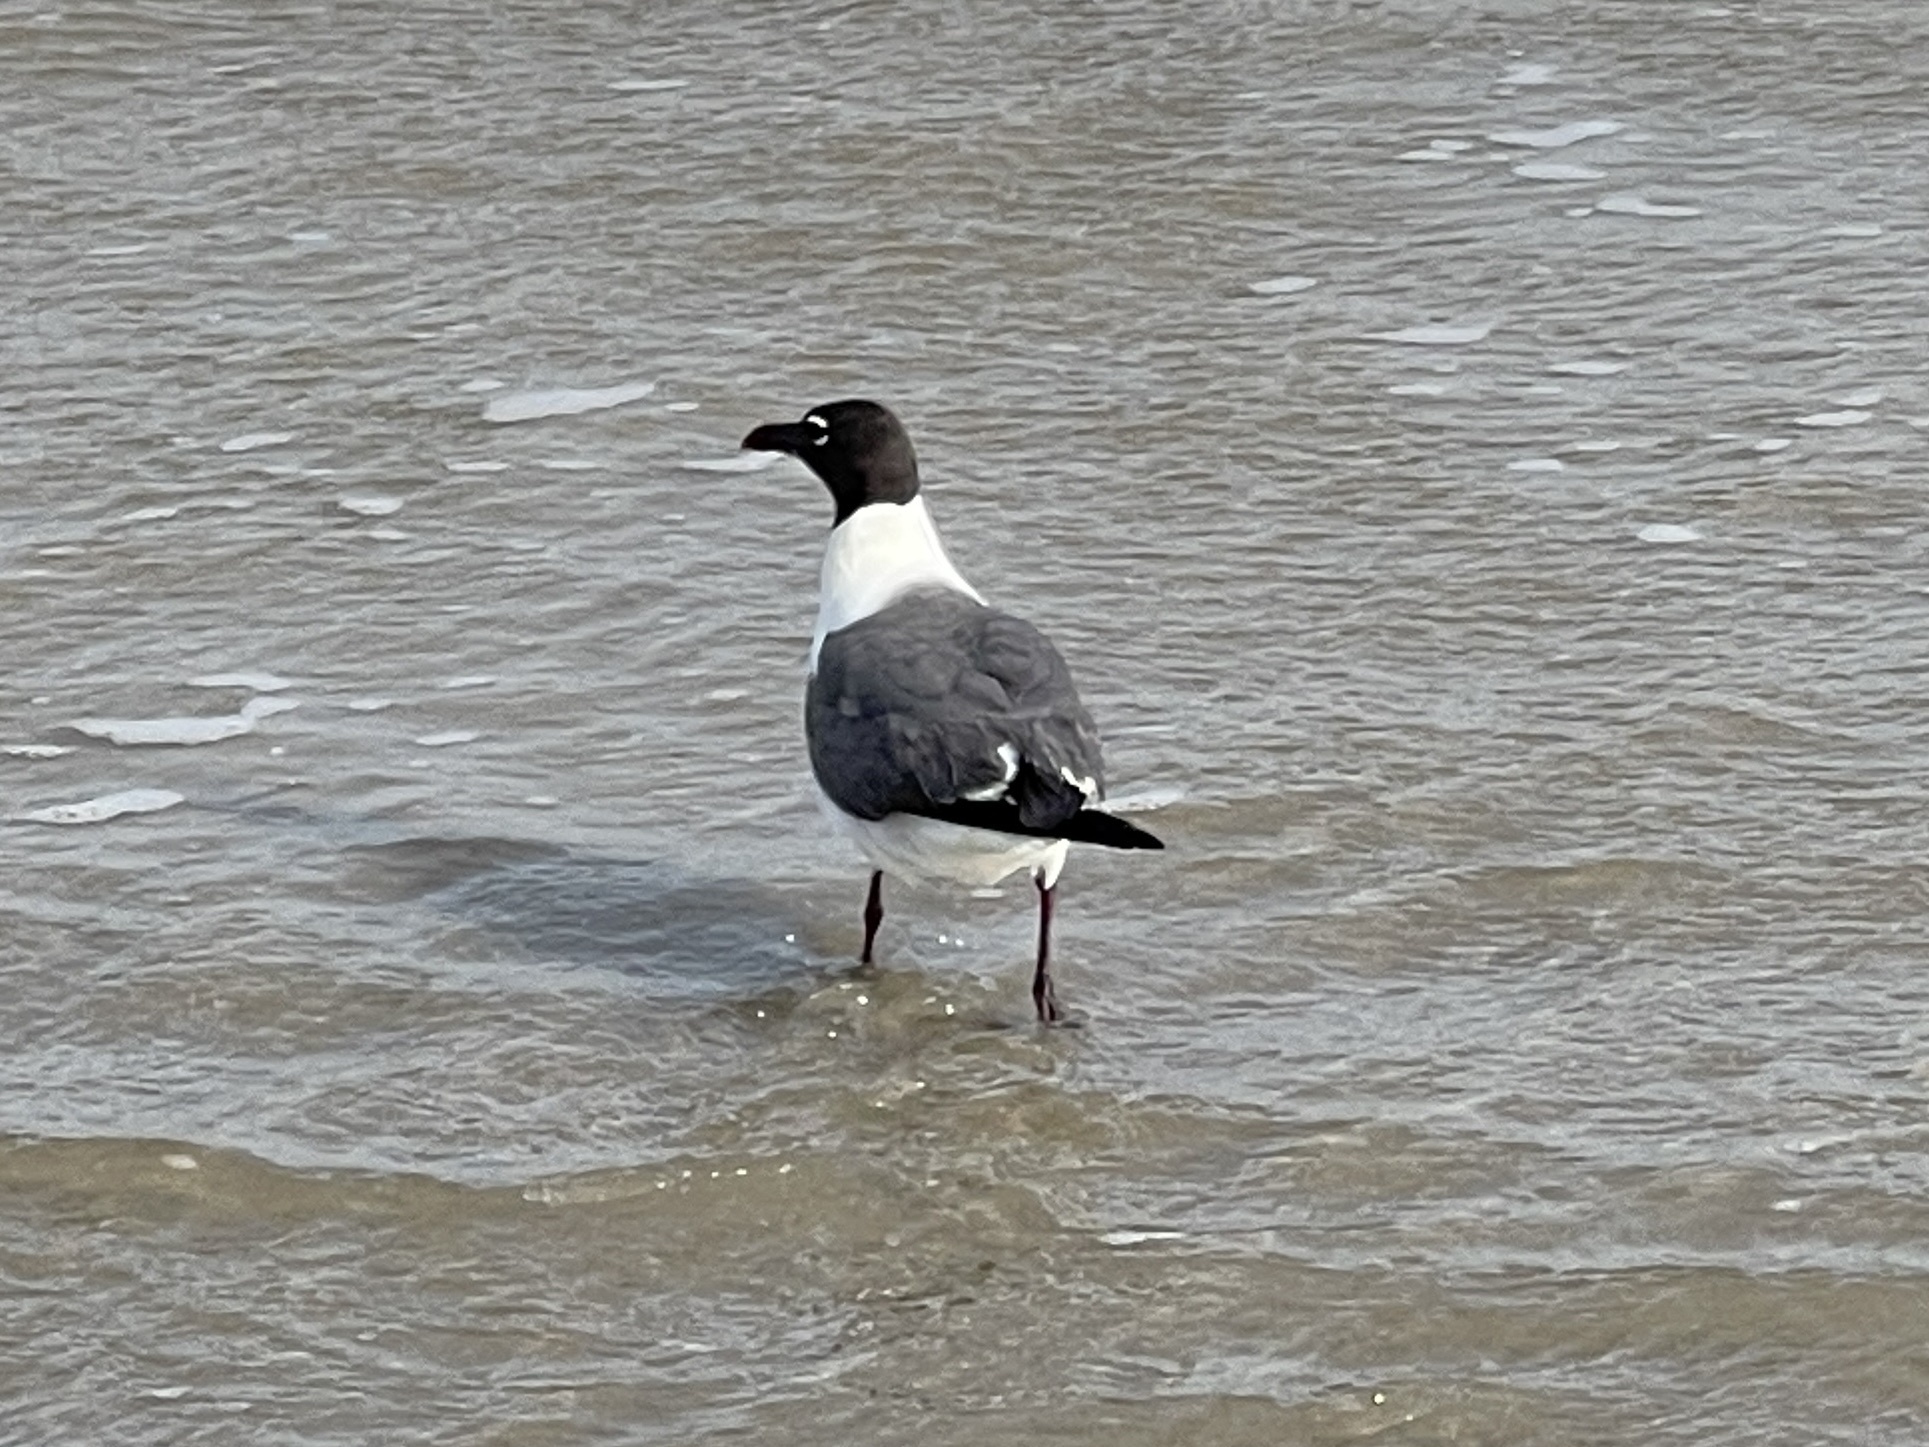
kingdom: Animalia
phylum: Chordata
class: Aves
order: Charadriiformes
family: Laridae
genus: Leucophaeus
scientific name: Leucophaeus atricilla
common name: Laughing gull
